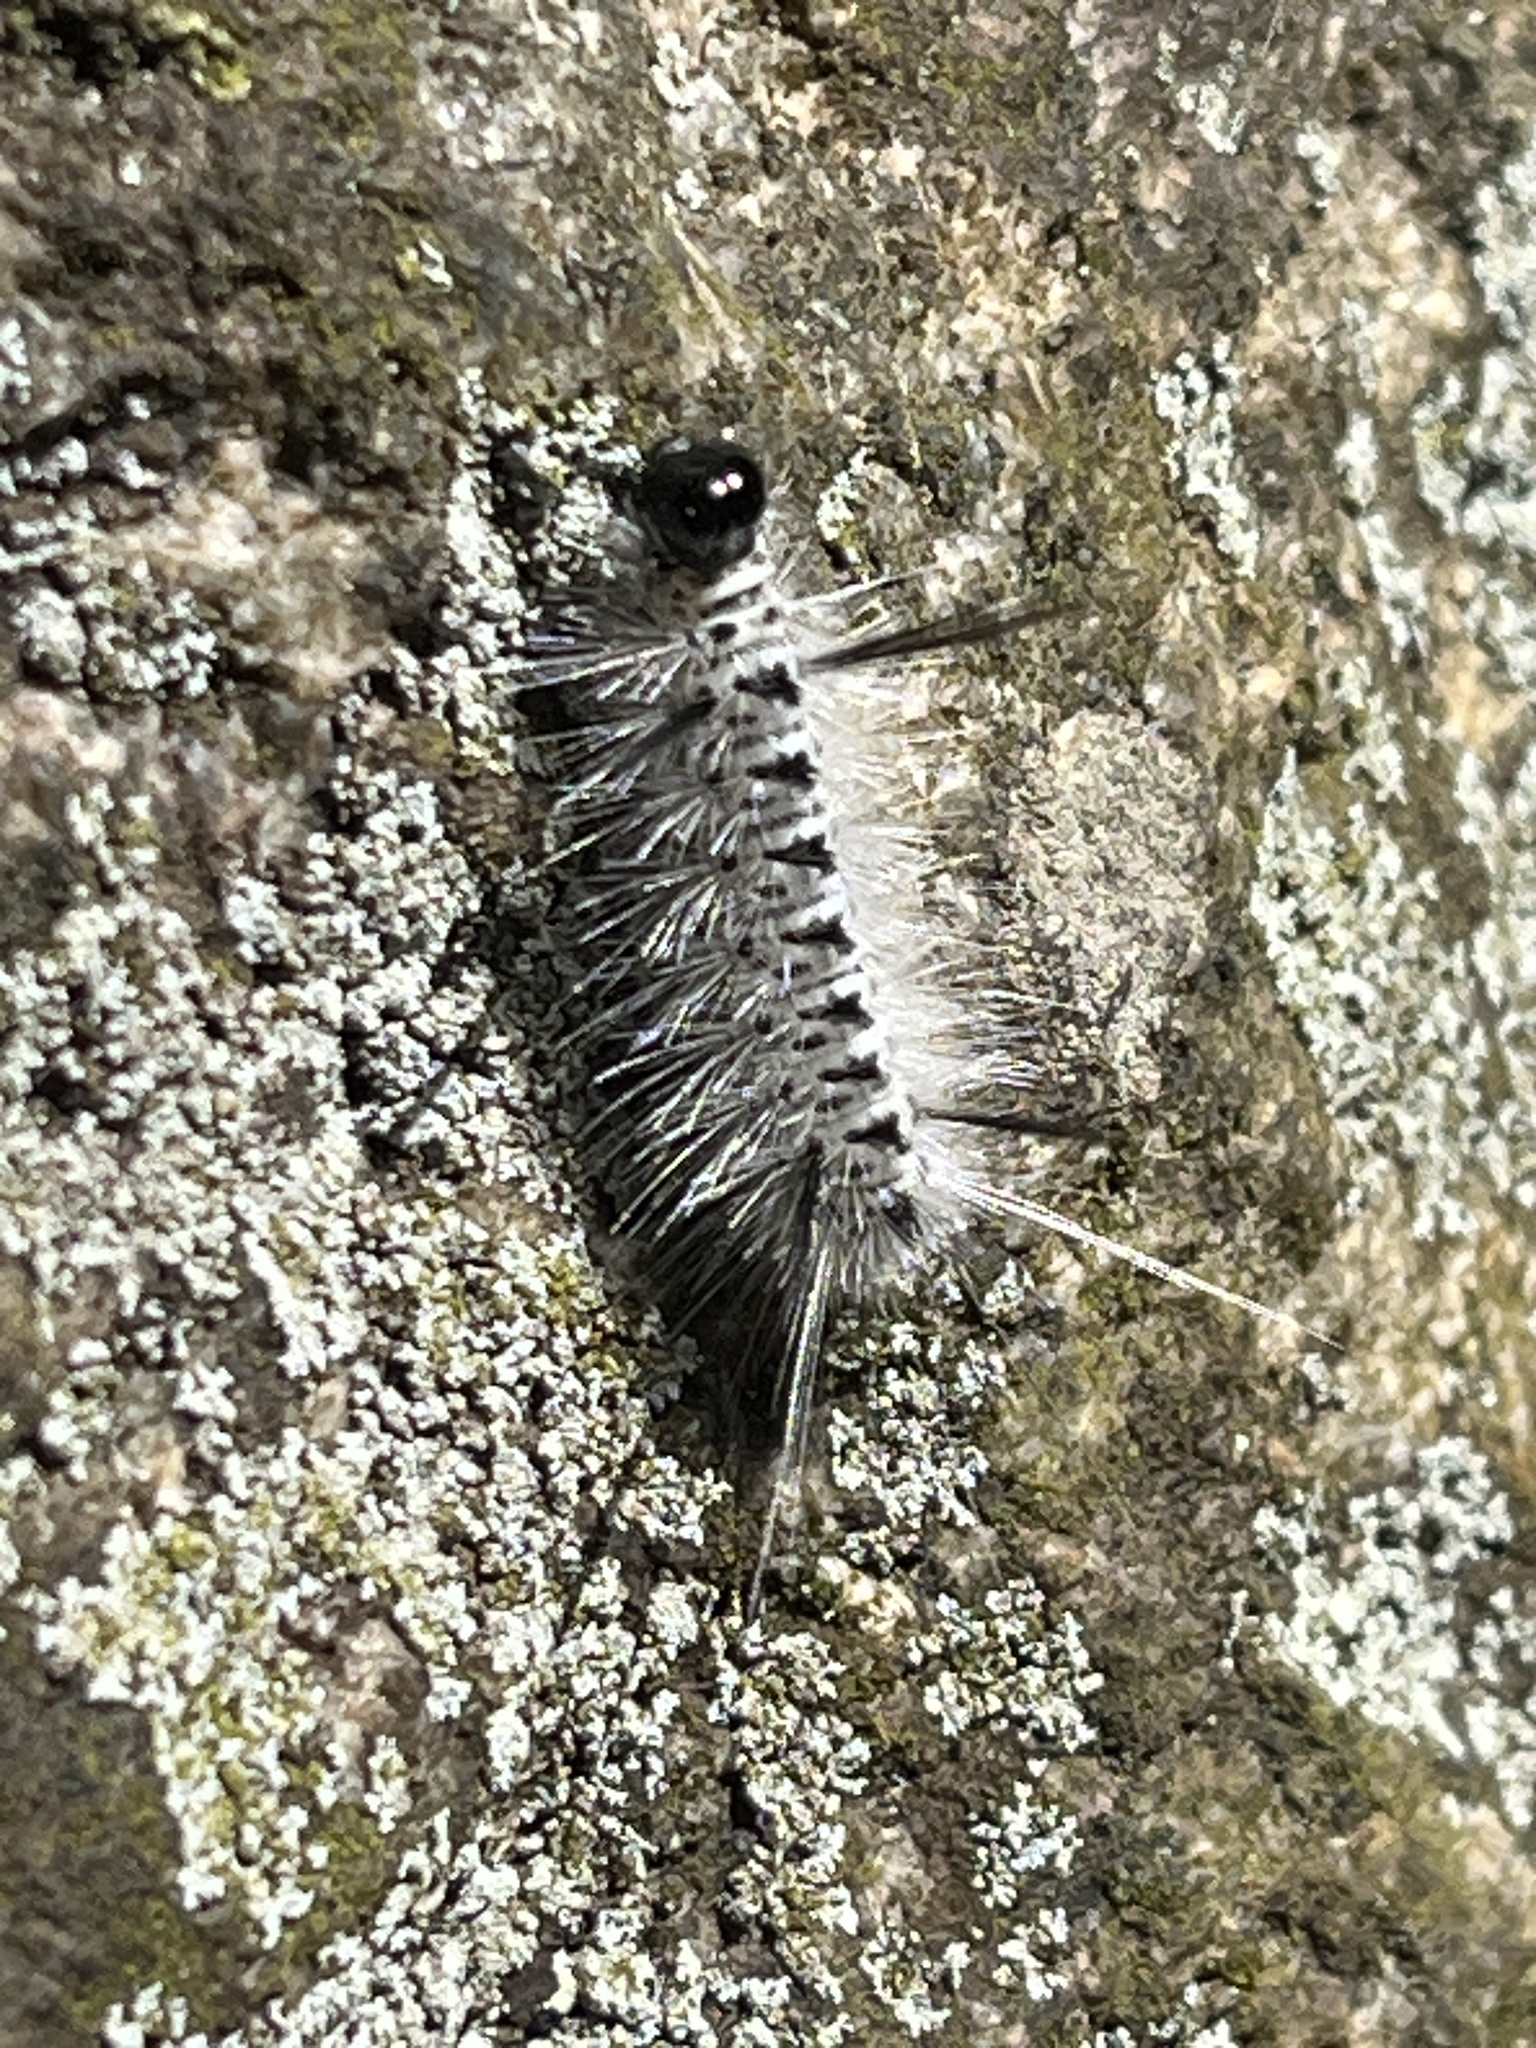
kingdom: Animalia
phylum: Arthropoda
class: Insecta
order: Lepidoptera
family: Erebidae
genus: Lophocampa
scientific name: Lophocampa caryae
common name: Hickory tussock moth
